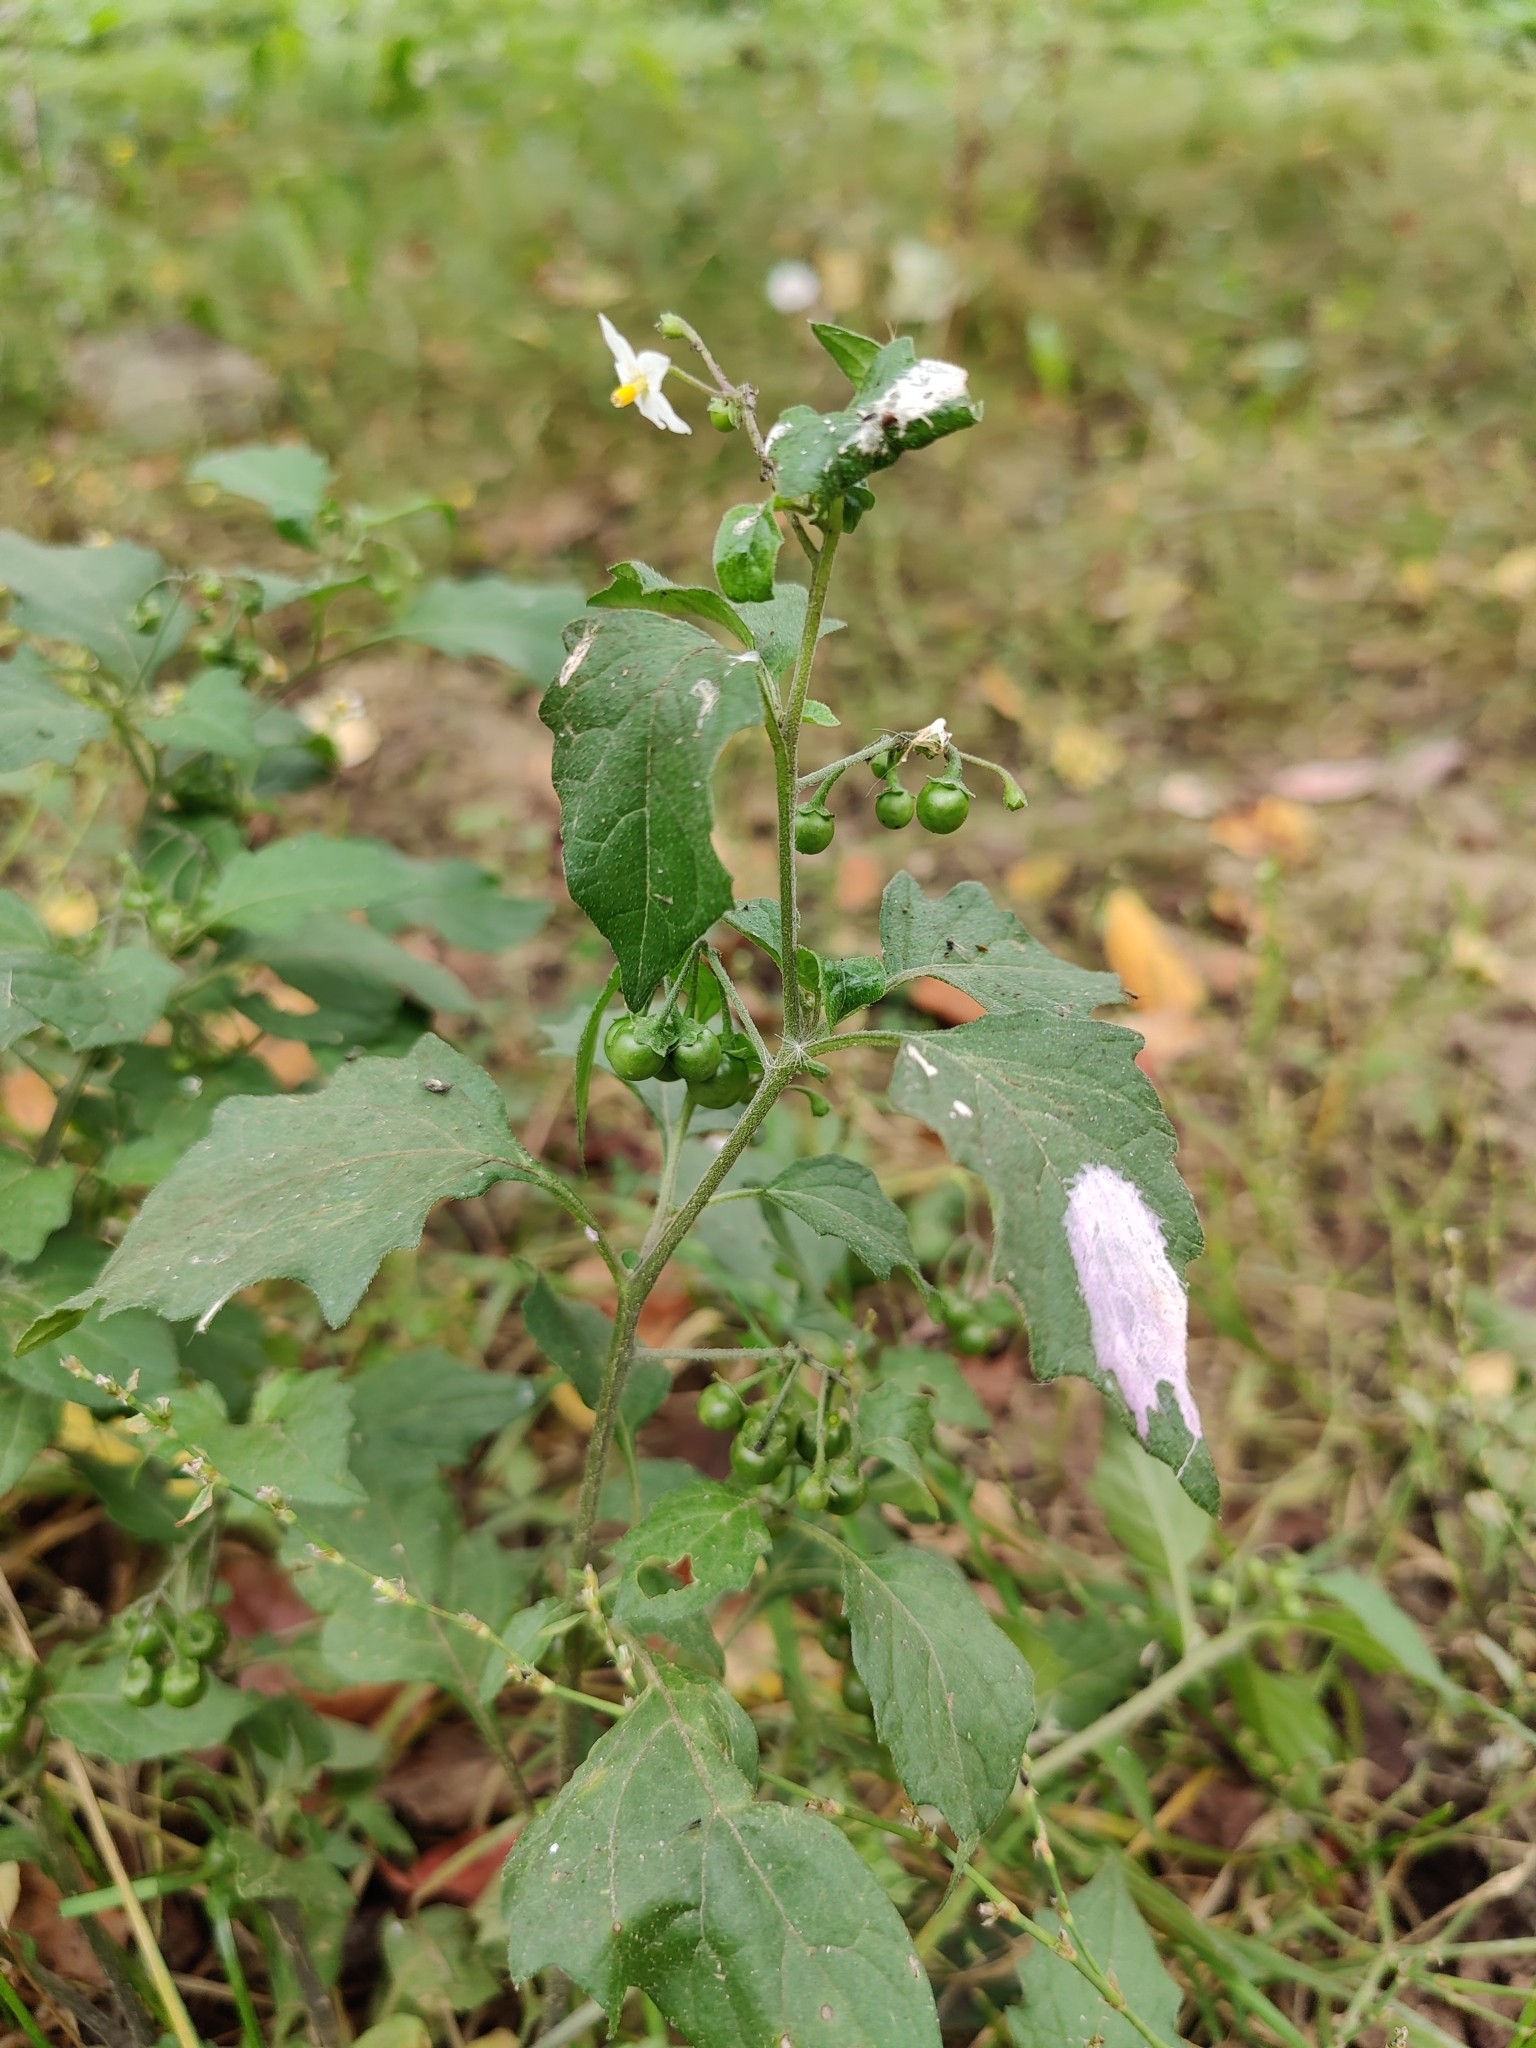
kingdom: Plantae
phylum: Tracheophyta
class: Magnoliopsida
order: Solanales
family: Solanaceae
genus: Solanum
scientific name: Solanum nigrum
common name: Black nightshade
